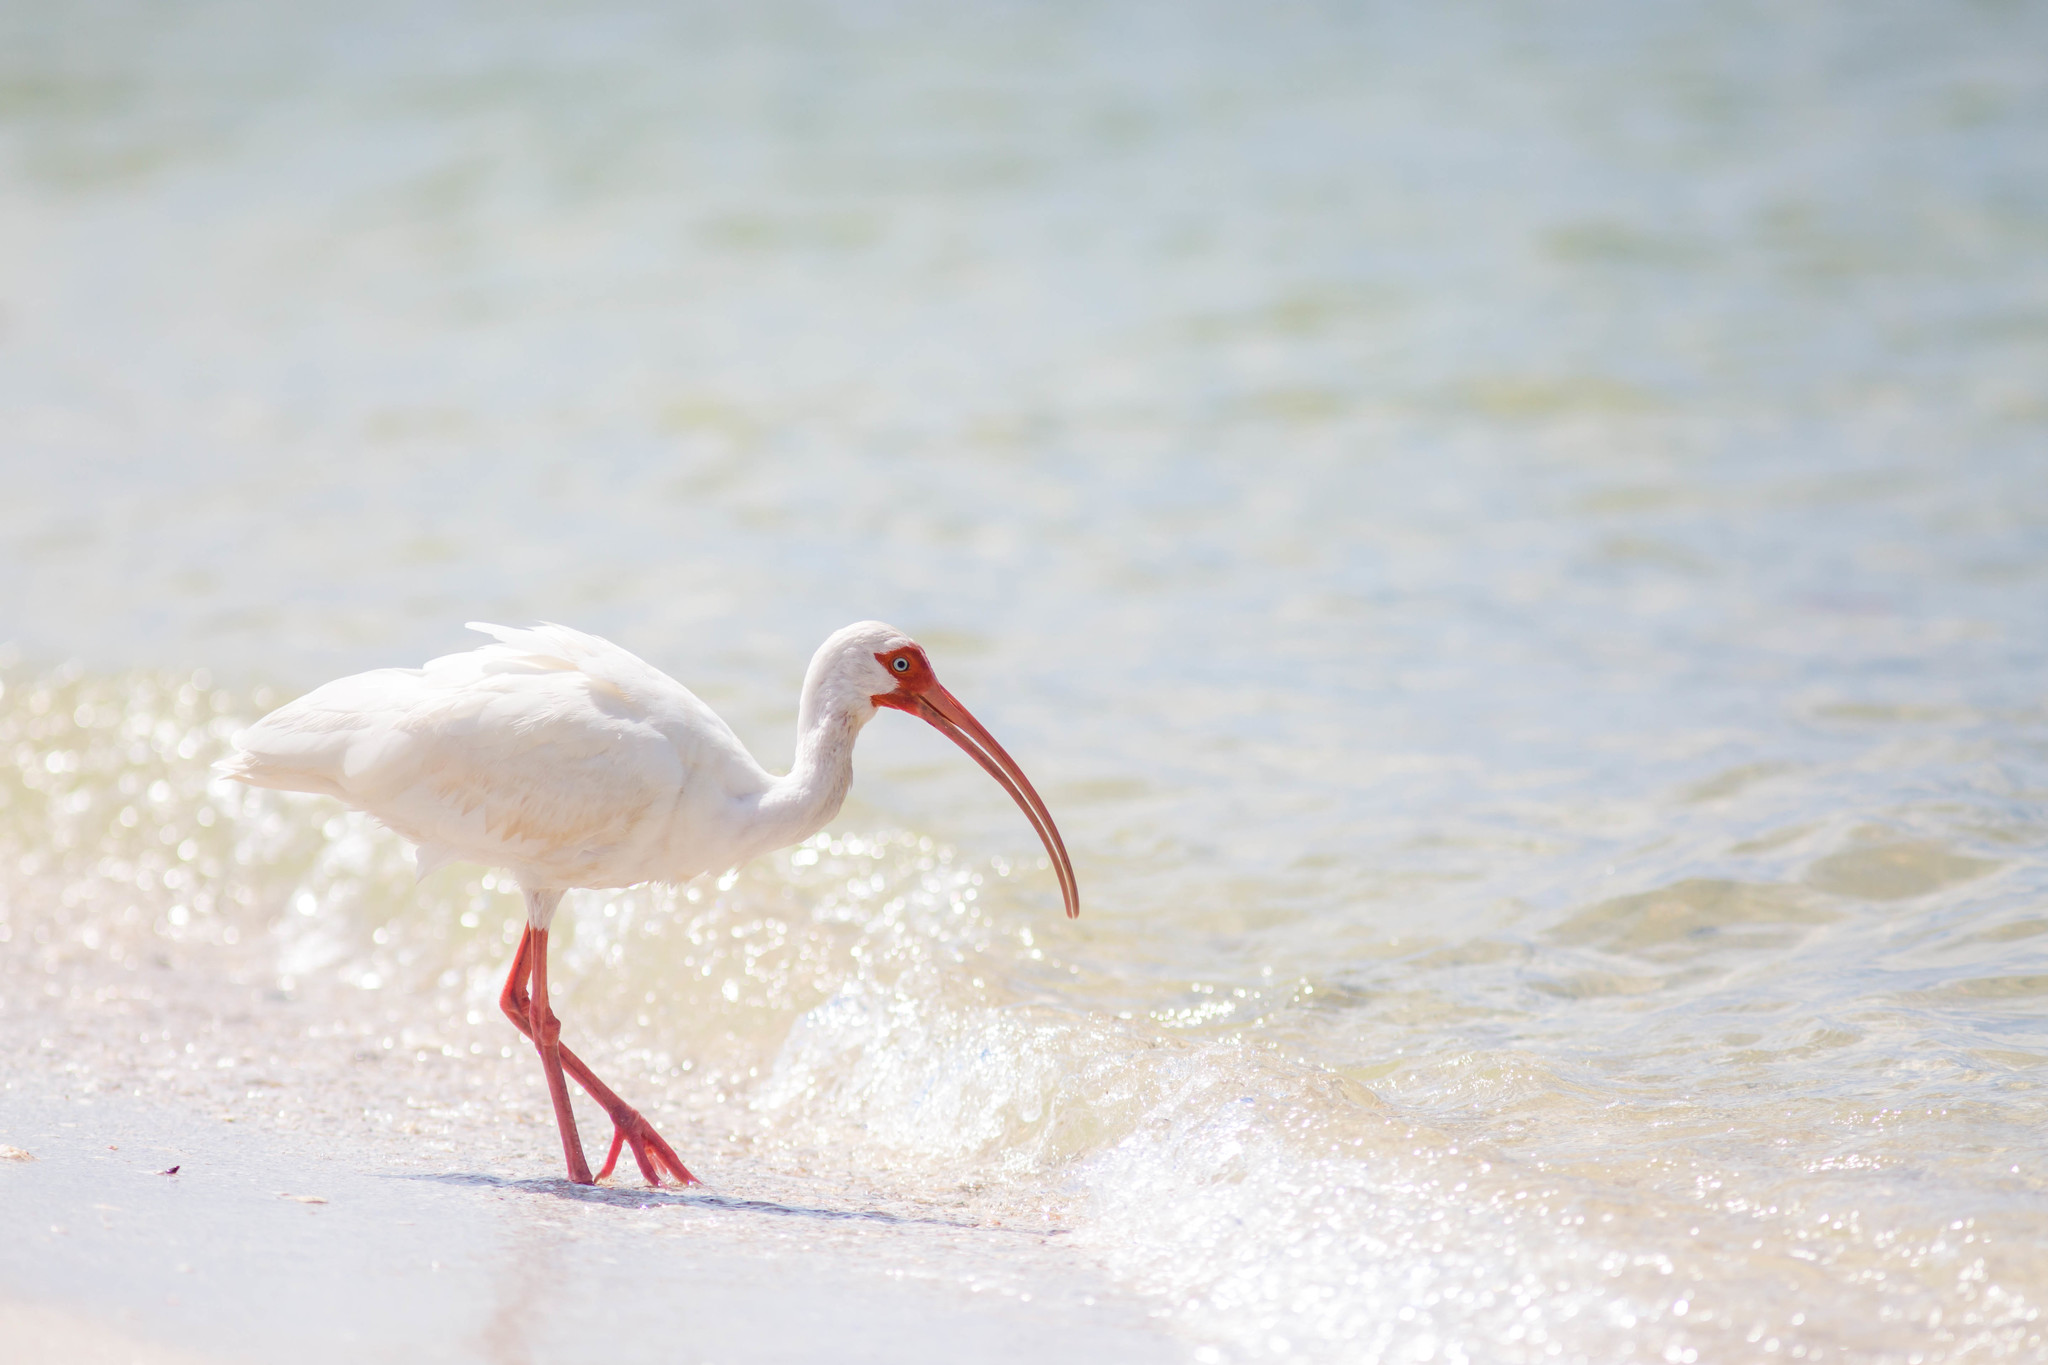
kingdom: Animalia
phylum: Chordata
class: Aves
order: Pelecaniformes
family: Threskiornithidae
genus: Eudocimus
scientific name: Eudocimus albus
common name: White ibis
